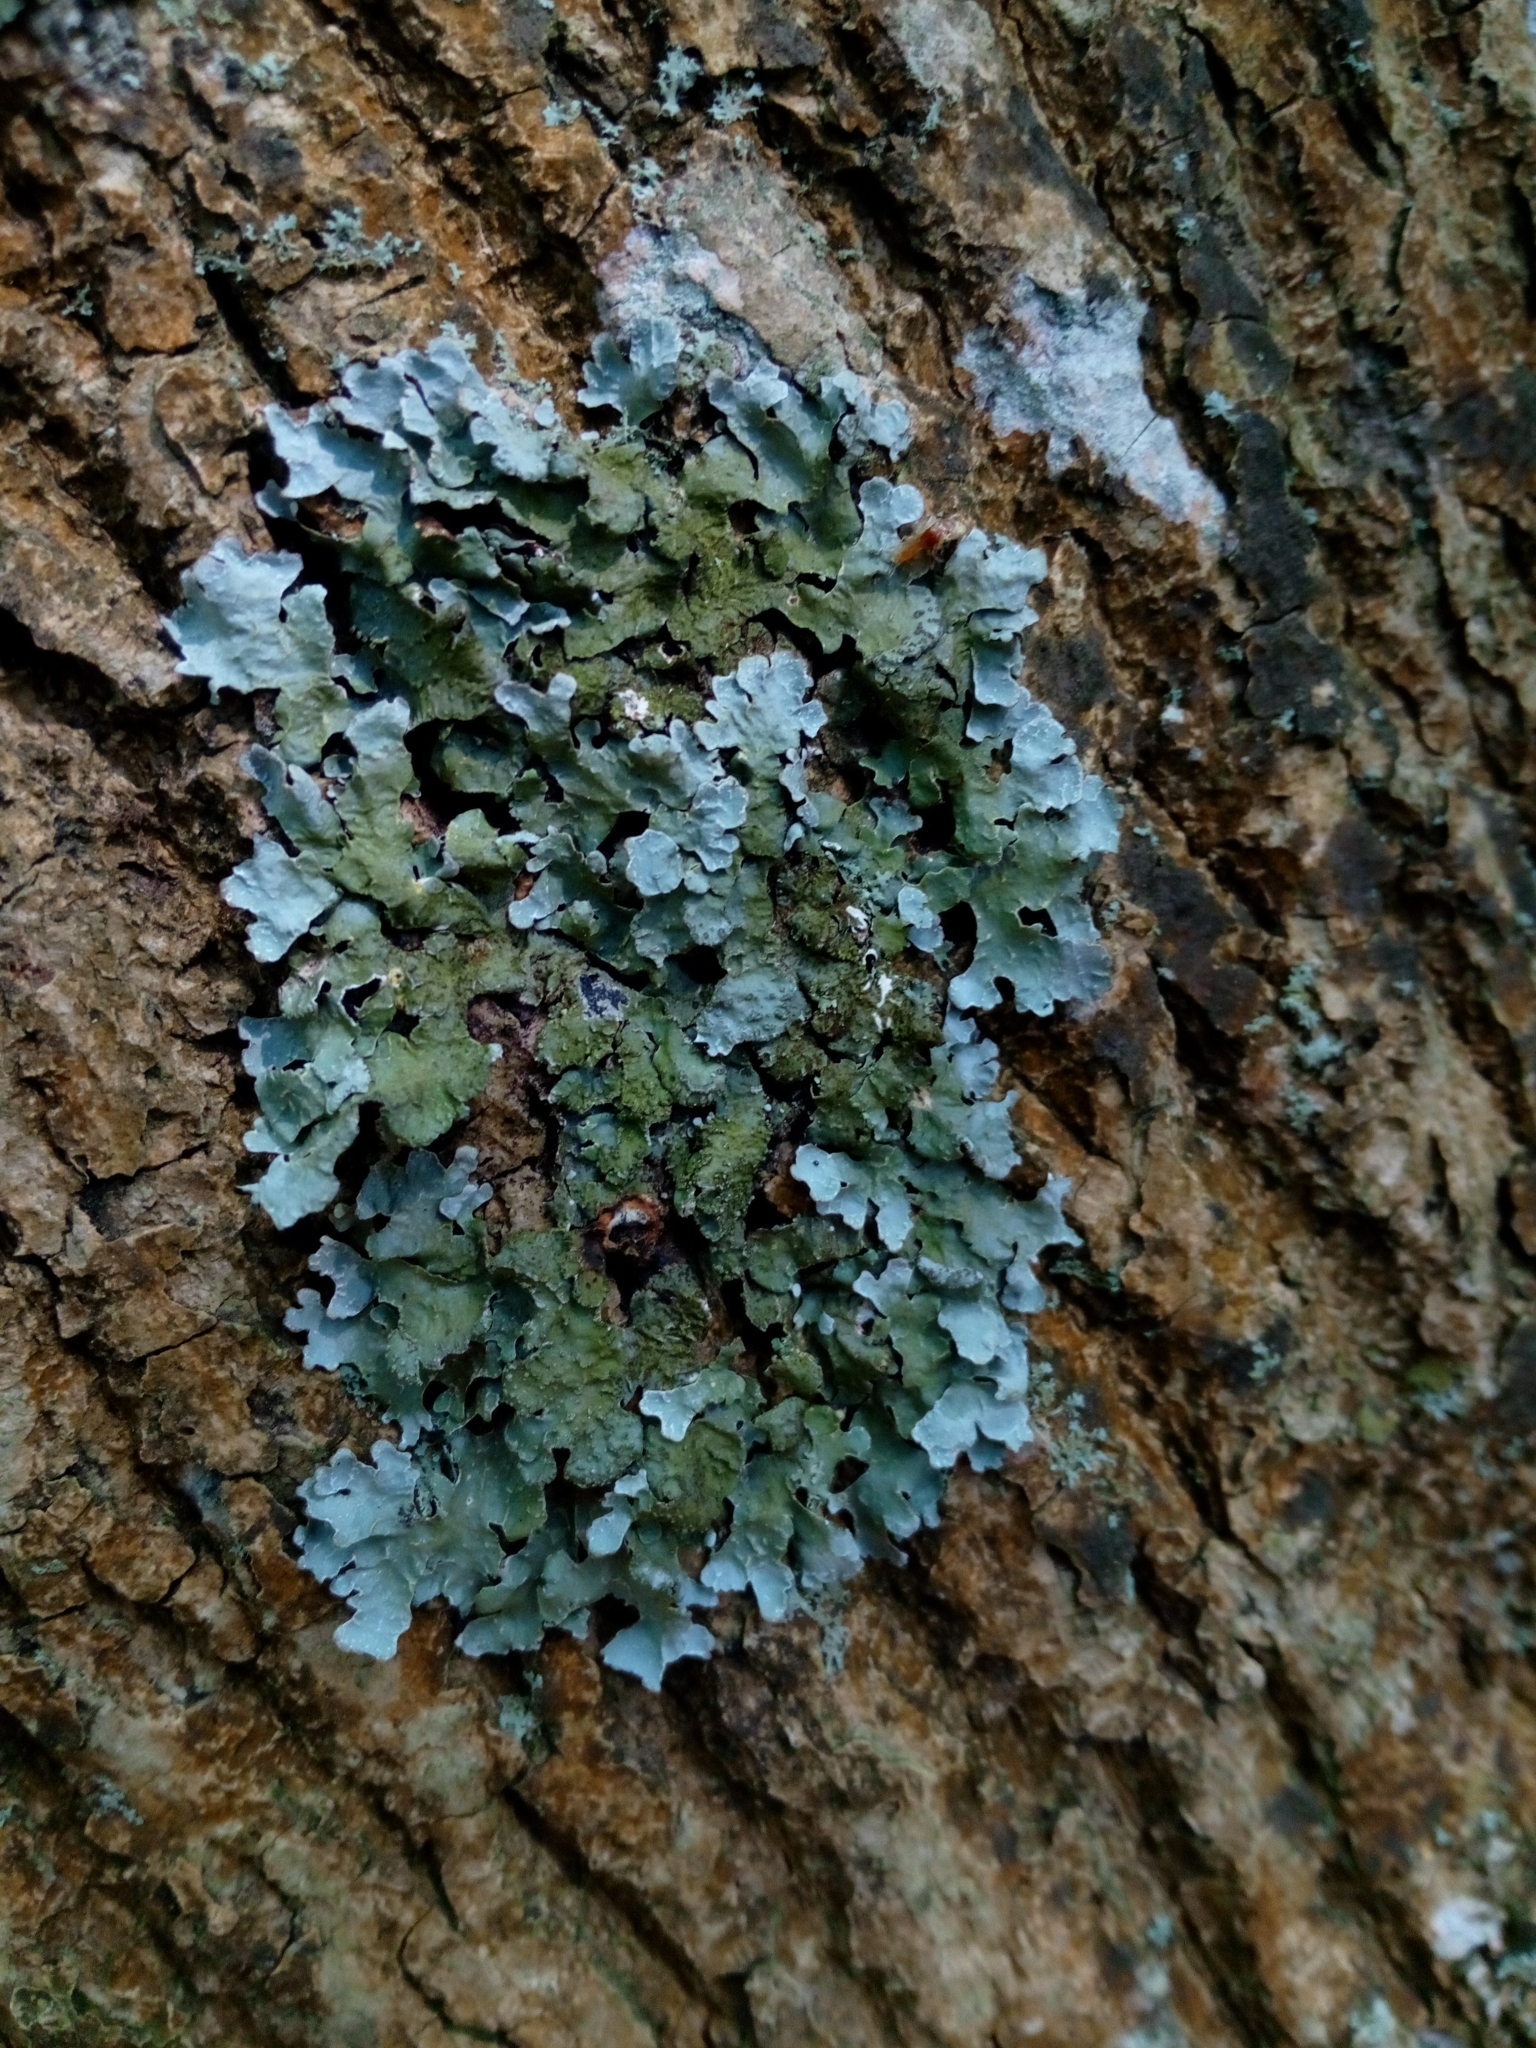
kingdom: Fungi
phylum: Ascomycota
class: Lecanoromycetes
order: Lecanorales
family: Parmeliaceae
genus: Parmelia
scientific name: Parmelia sulcata
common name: Netted shield lichen
